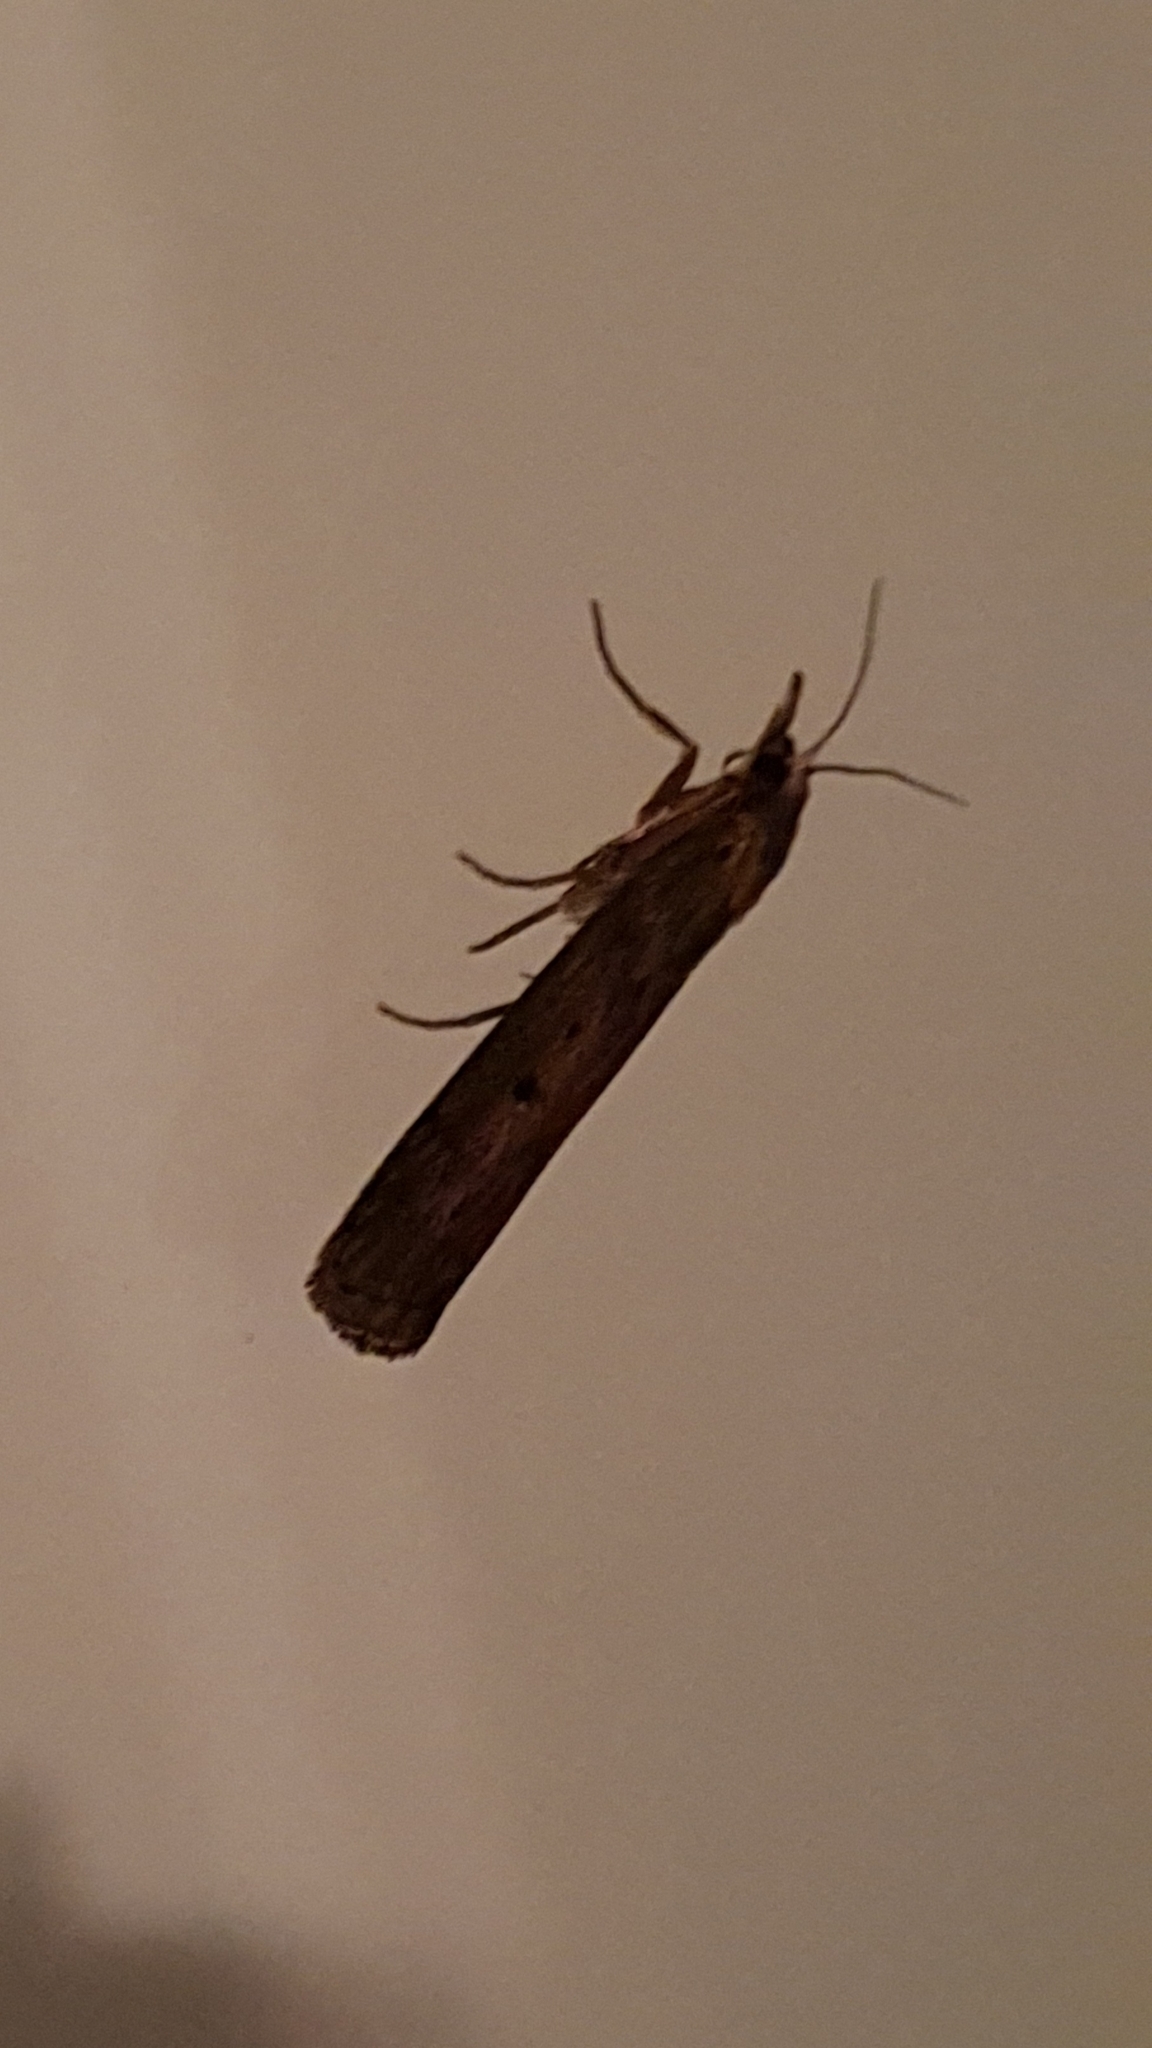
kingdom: Animalia
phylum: Arthropoda
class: Insecta
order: Lepidoptera
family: Pyralidae
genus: Aphomia
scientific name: Aphomia sociella
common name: Bee moth
